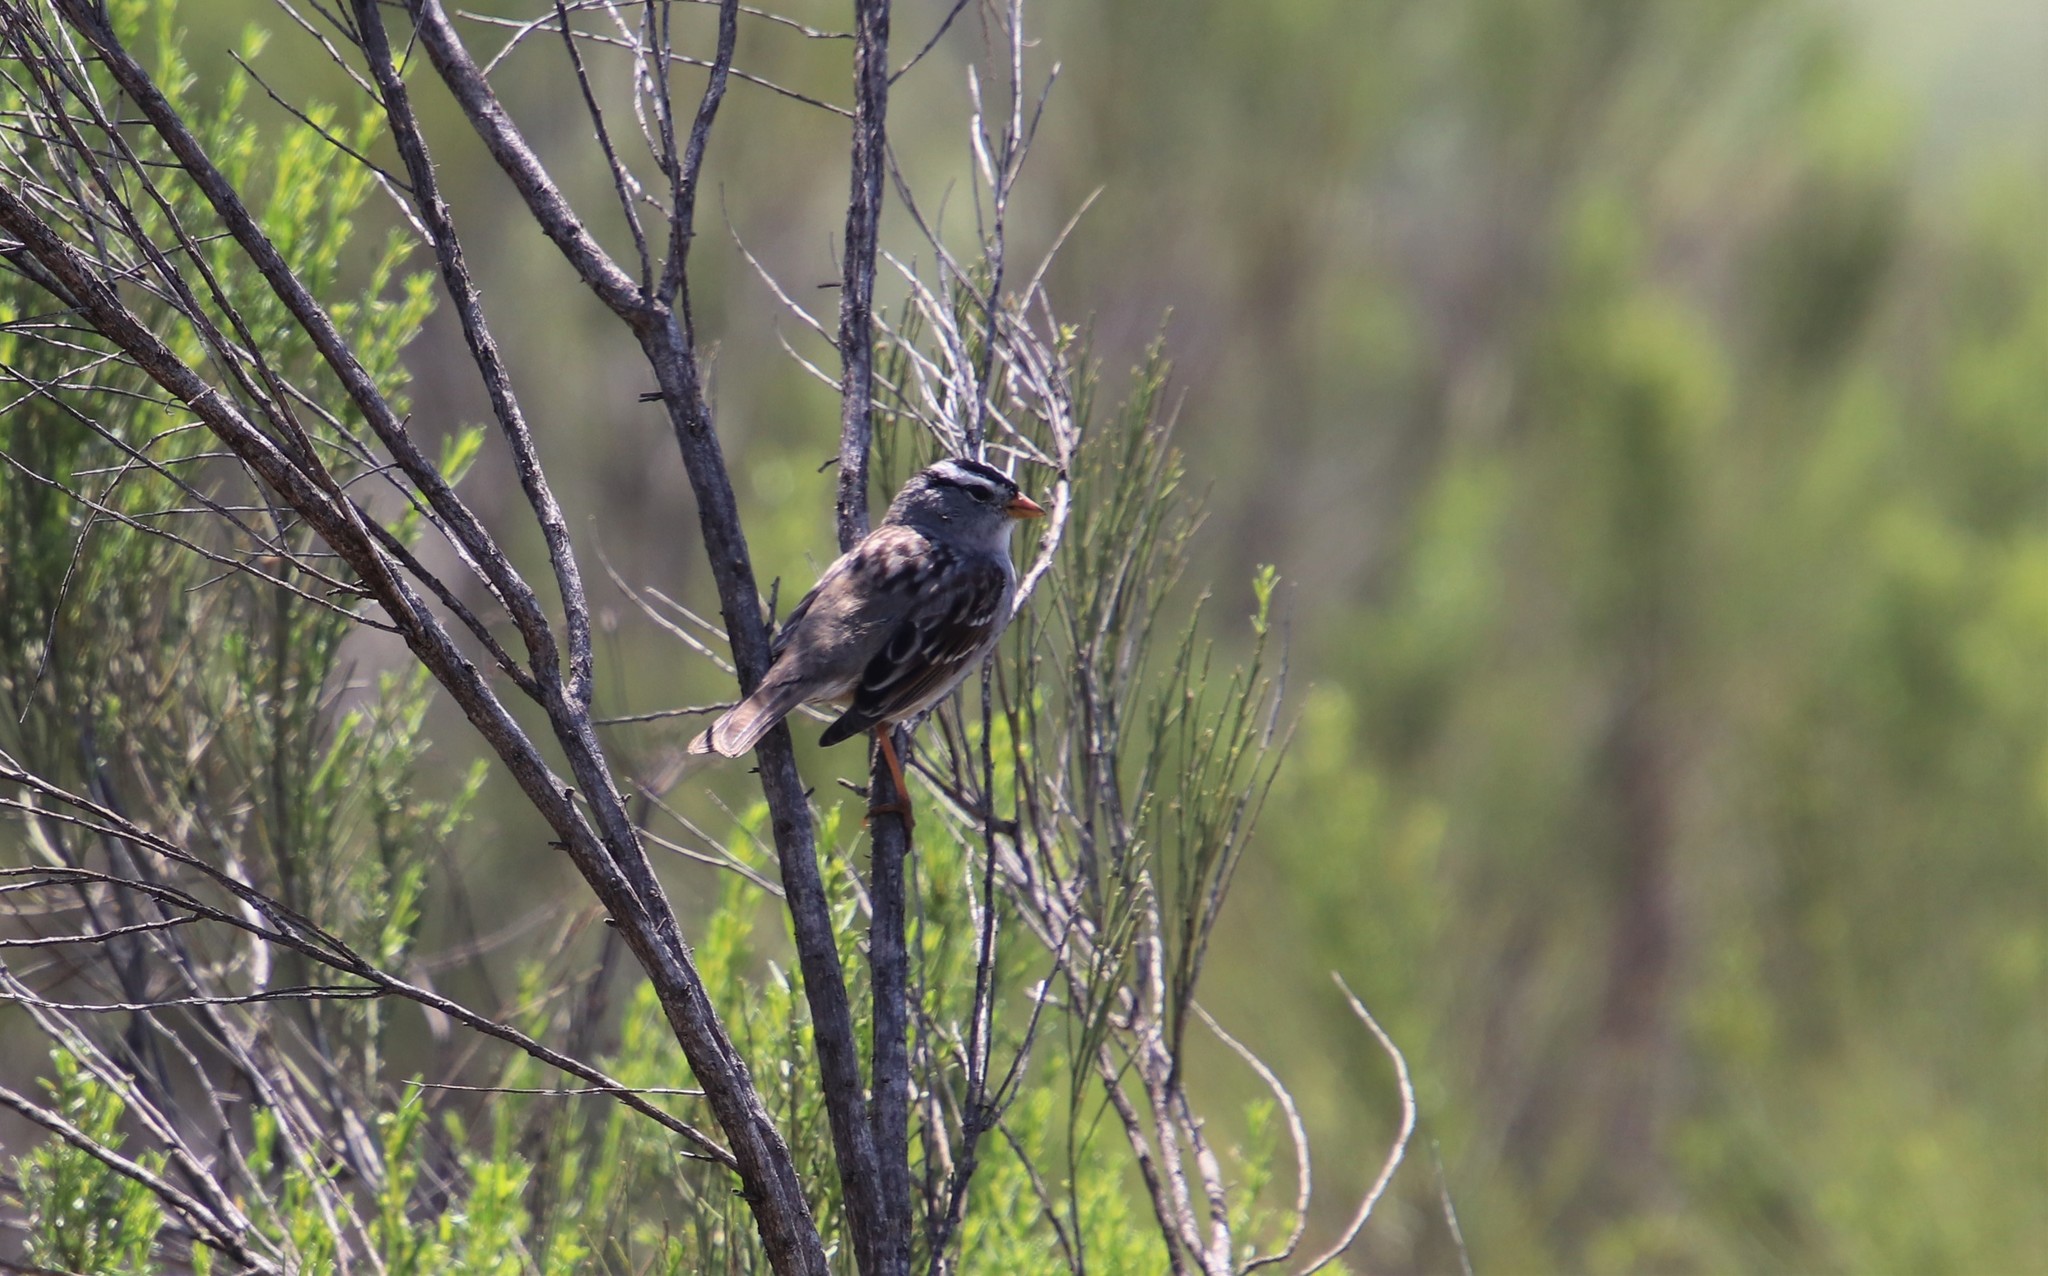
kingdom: Animalia
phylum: Chordata
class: Aves
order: Passeriformes
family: Passerellidae
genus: Zonotrichia
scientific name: Zonotrichia leucophrys
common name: White-crowned sparrow
